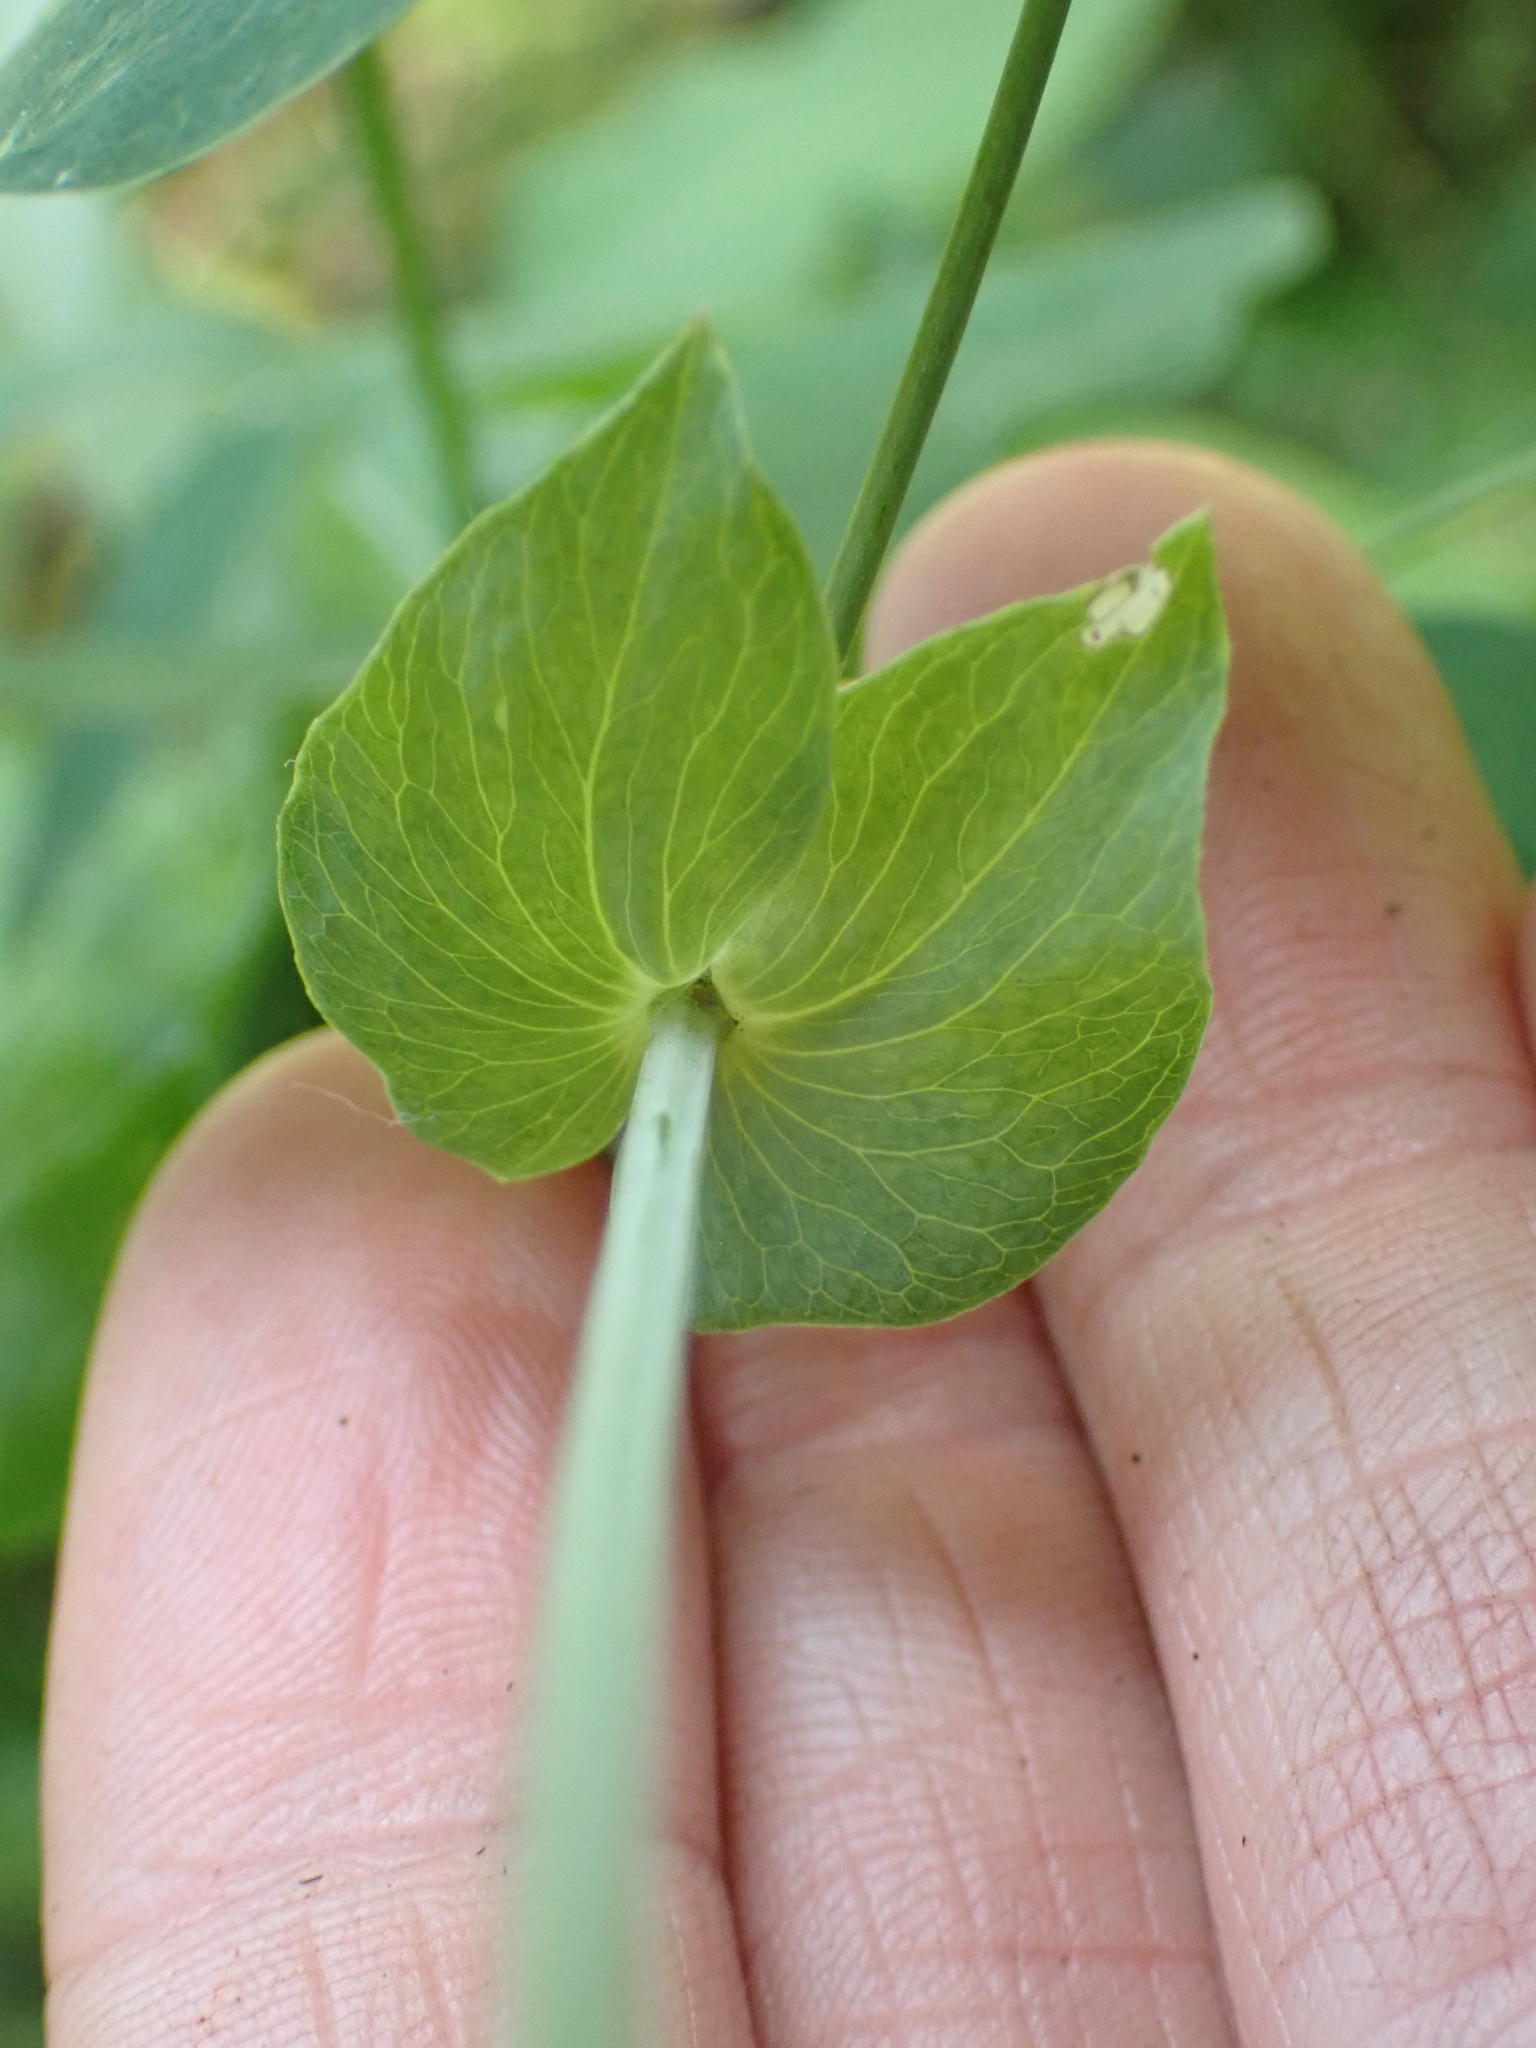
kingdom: Plantae
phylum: Tracheophyta
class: Magnoliopsida
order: Fabales
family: Fabaceae
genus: Lathyrus
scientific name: Lathyrus ochroleucus
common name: Pale vetchling
